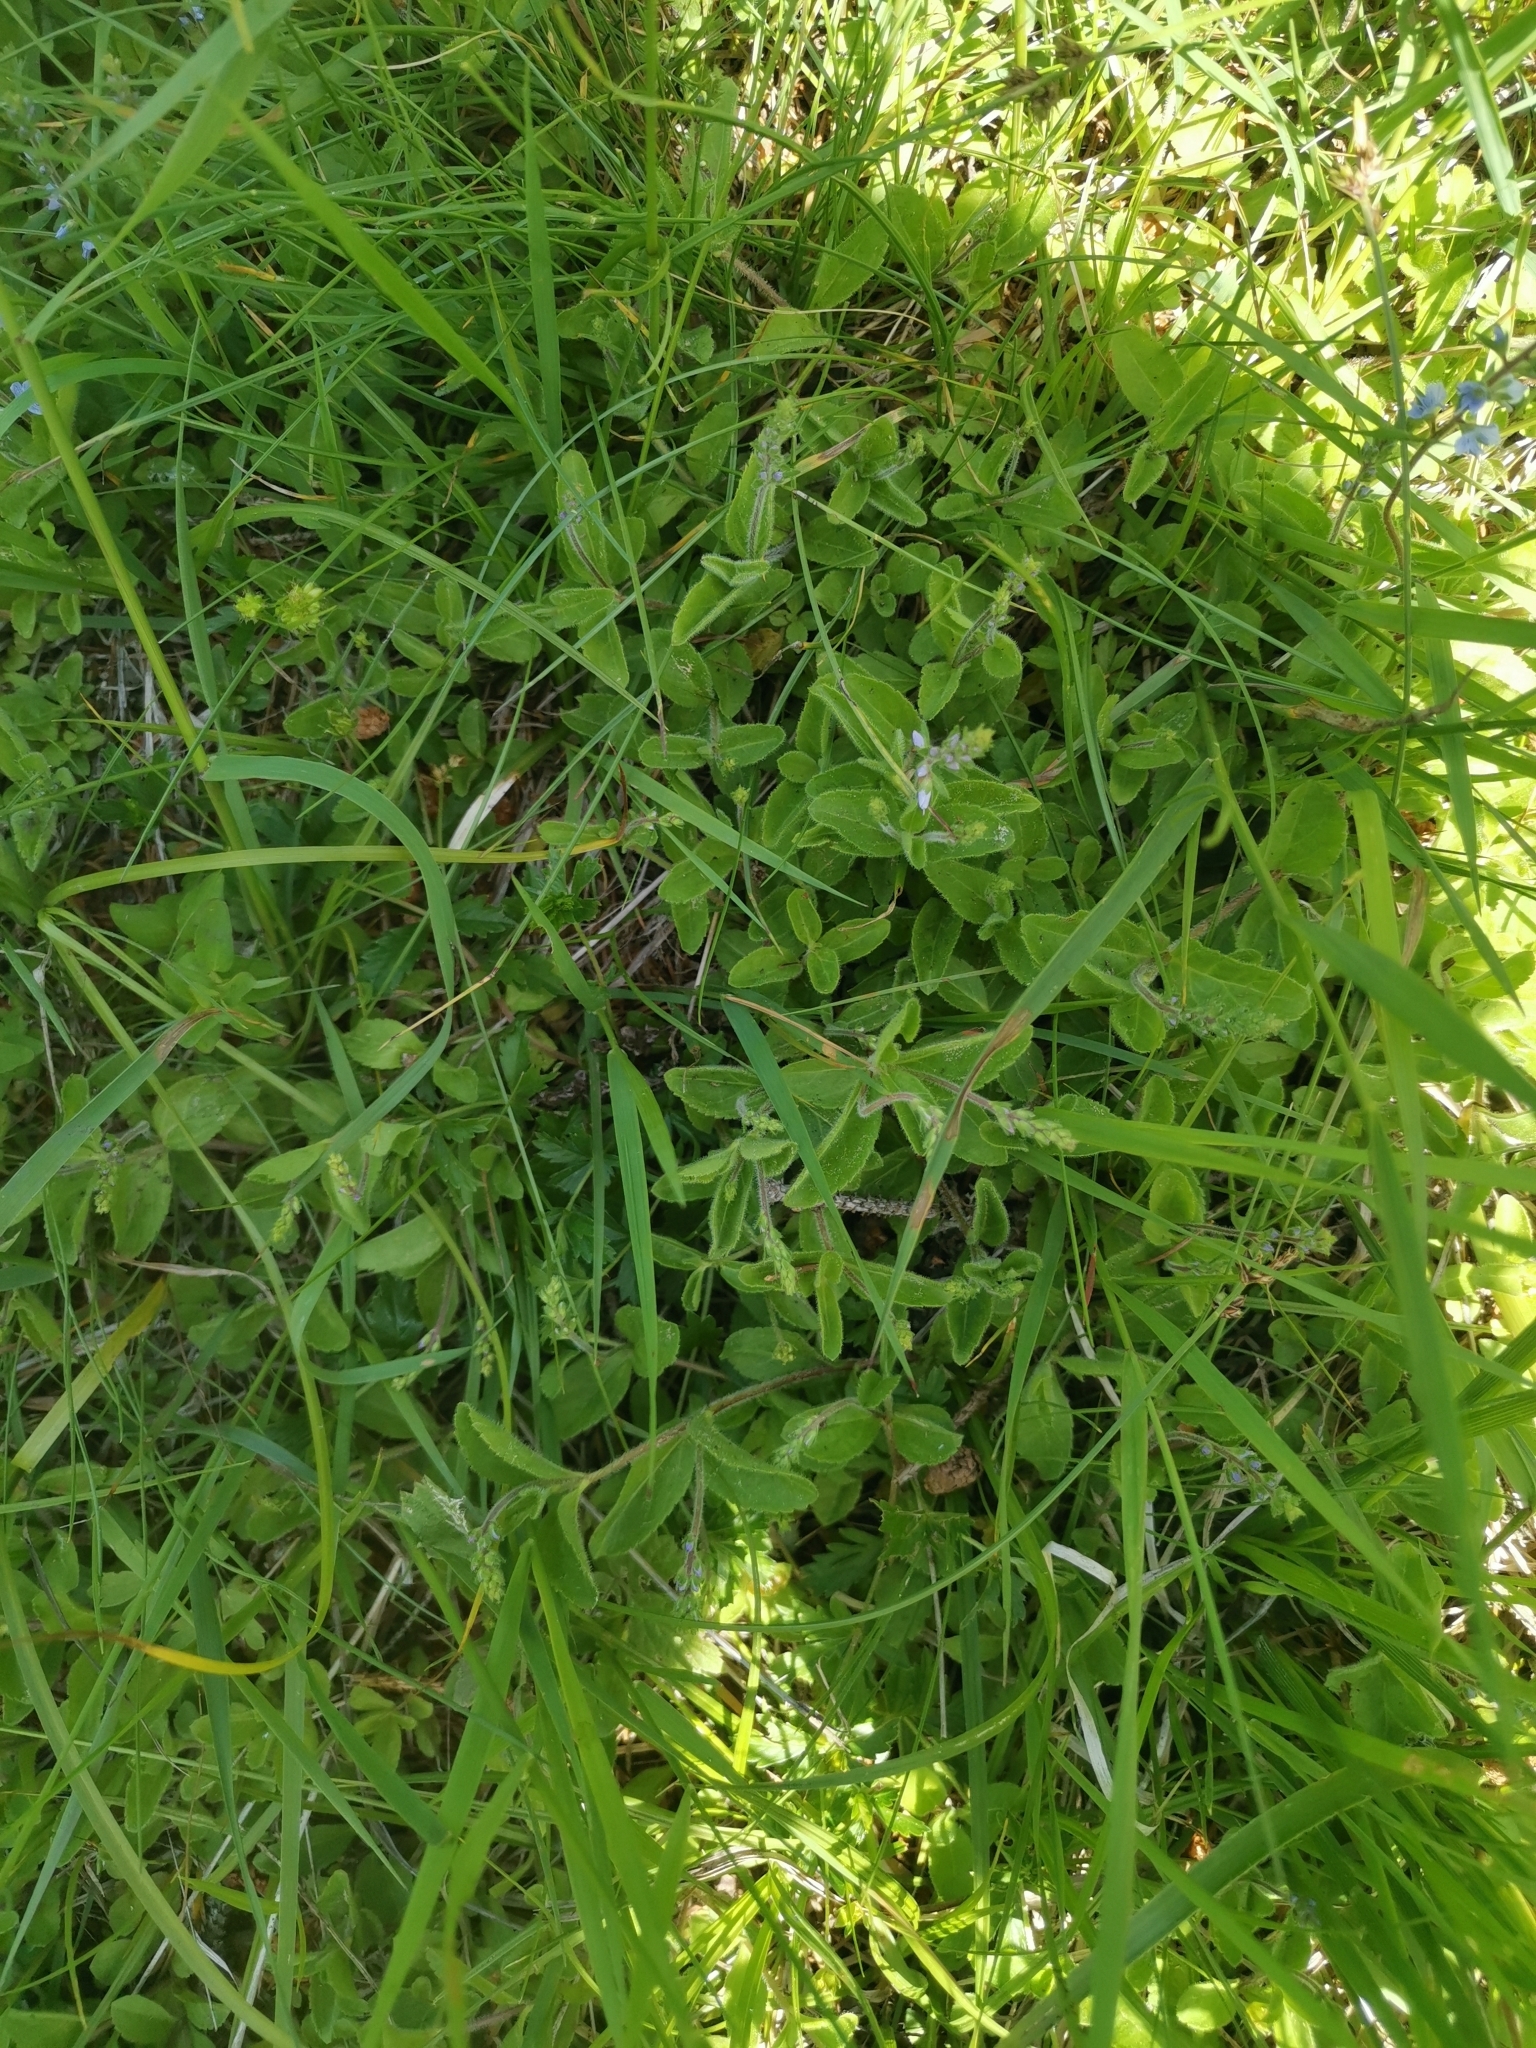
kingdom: Plantae
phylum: Tracheophyta
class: Magnoliopsida
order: Lamiales
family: Plantaginaceae
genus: Veronica
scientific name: Veronica officinalis
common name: Common speedwell
